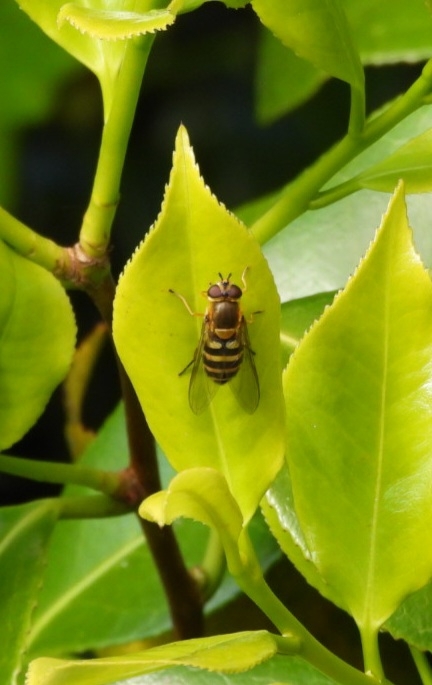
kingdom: Animalia
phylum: Arthropoda
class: Insecta
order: Diptera
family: Syrphidae
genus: Syrphus
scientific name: Syrphus
